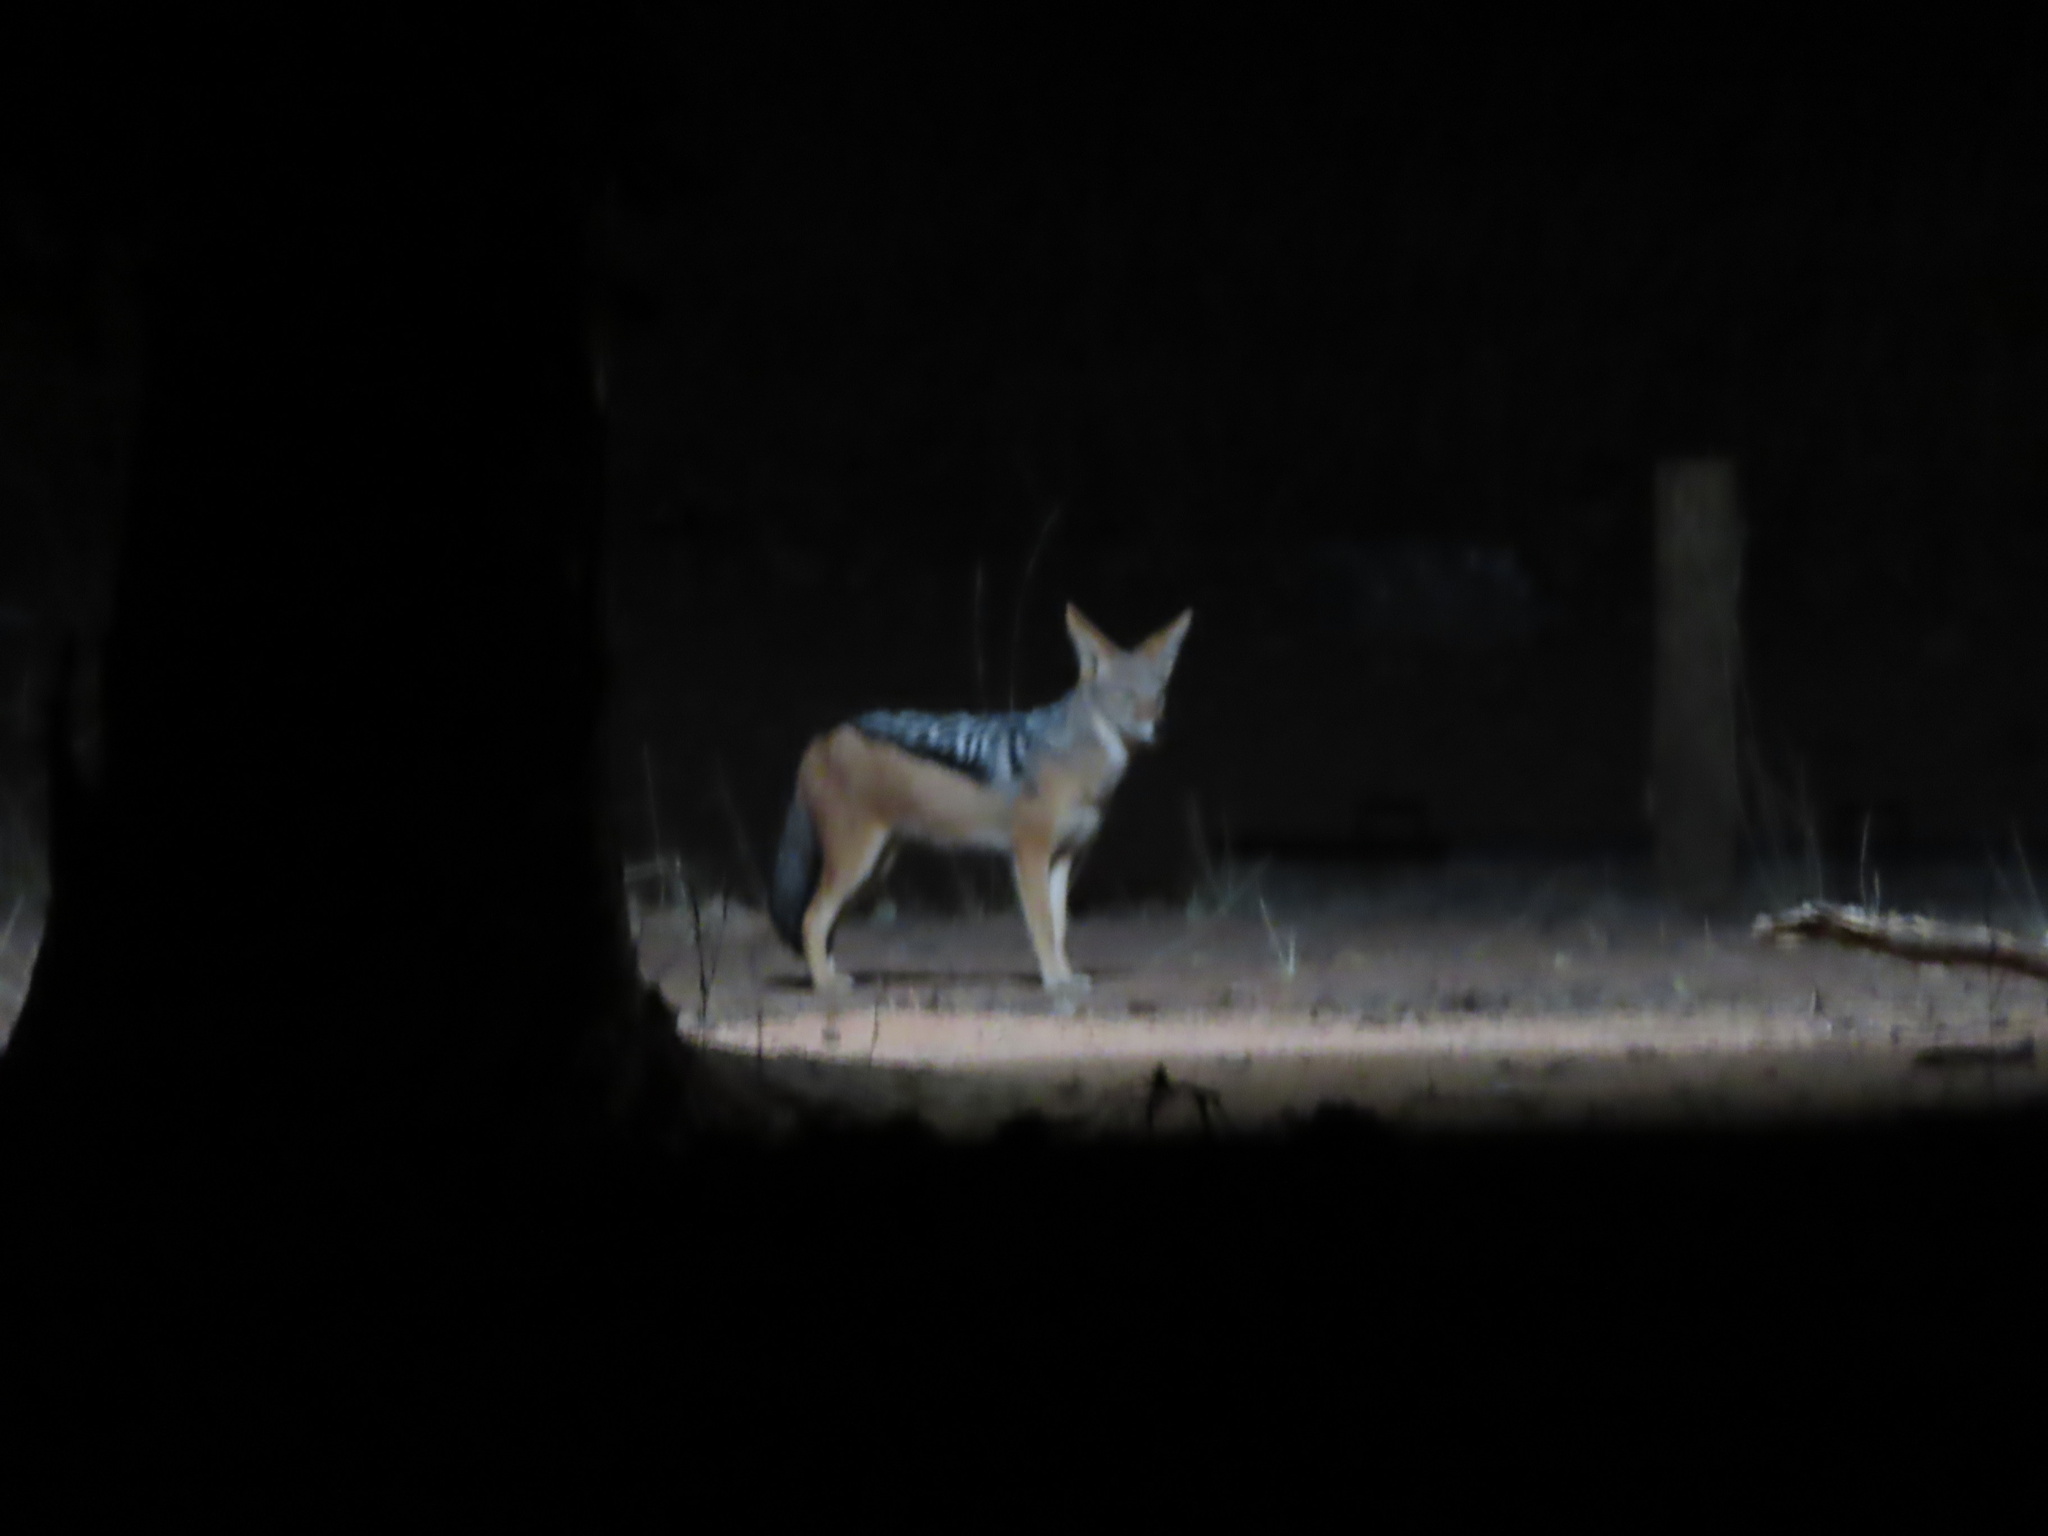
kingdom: Animalia
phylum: Chordata
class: Mammalia
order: Carnivora
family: Canidae
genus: Lupulella
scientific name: Lupulella
